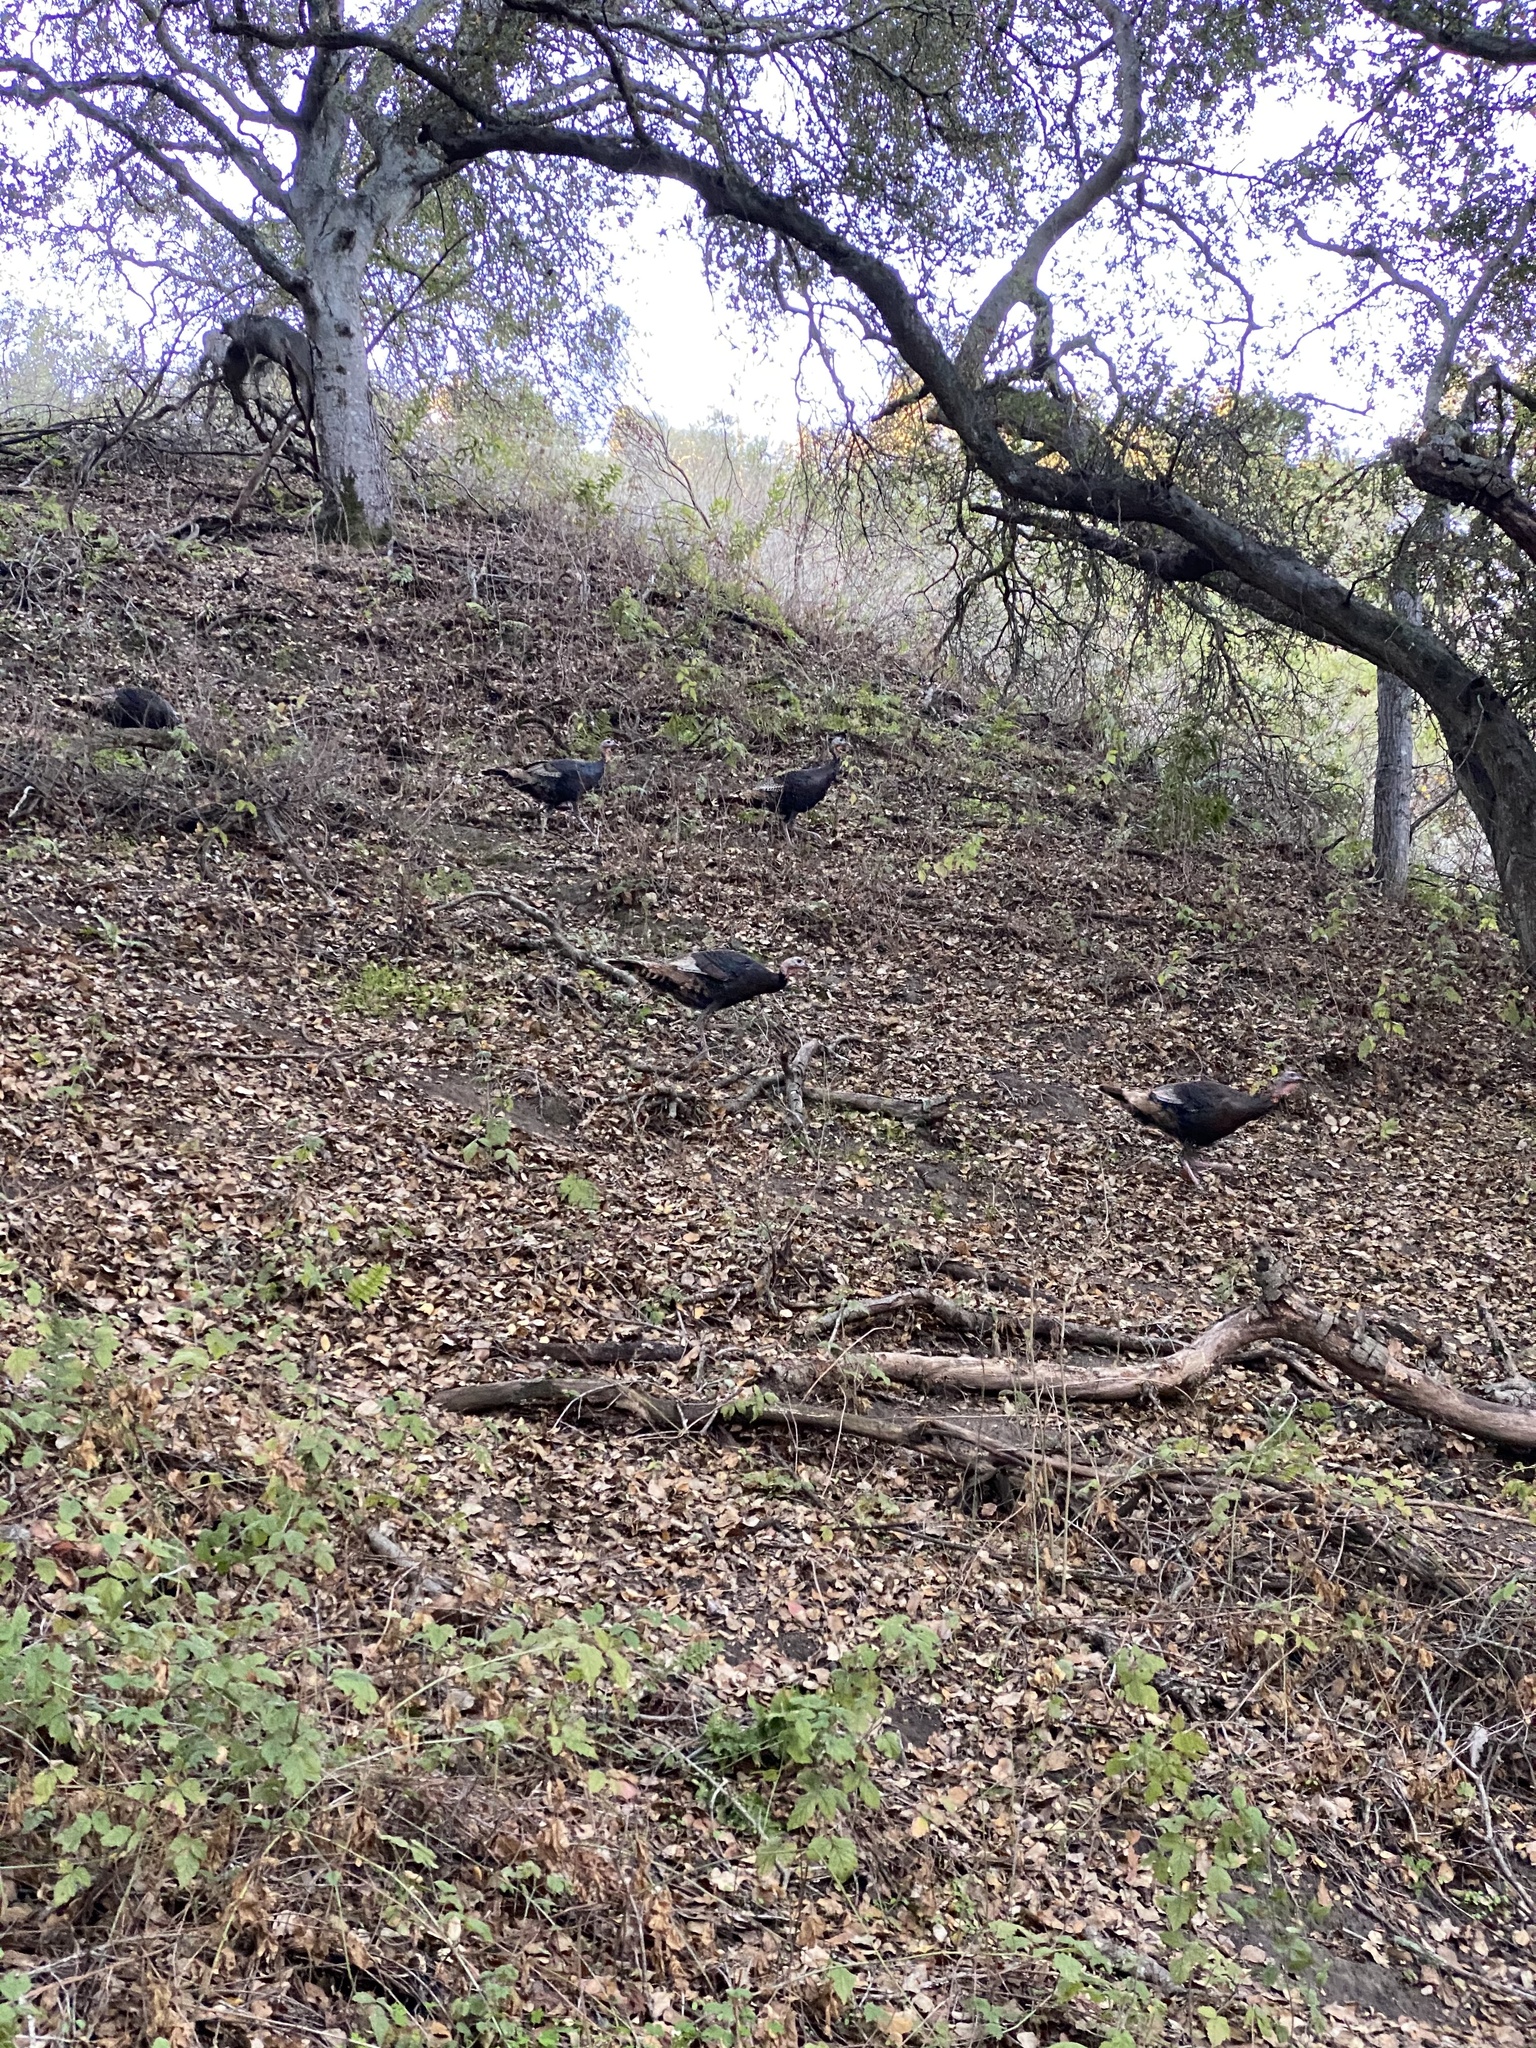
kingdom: Animalia
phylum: Chordata
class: Aves
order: Galliformes
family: Phasianidae
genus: Meleagris
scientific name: Meleagris gallopavo
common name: Wild turkey
